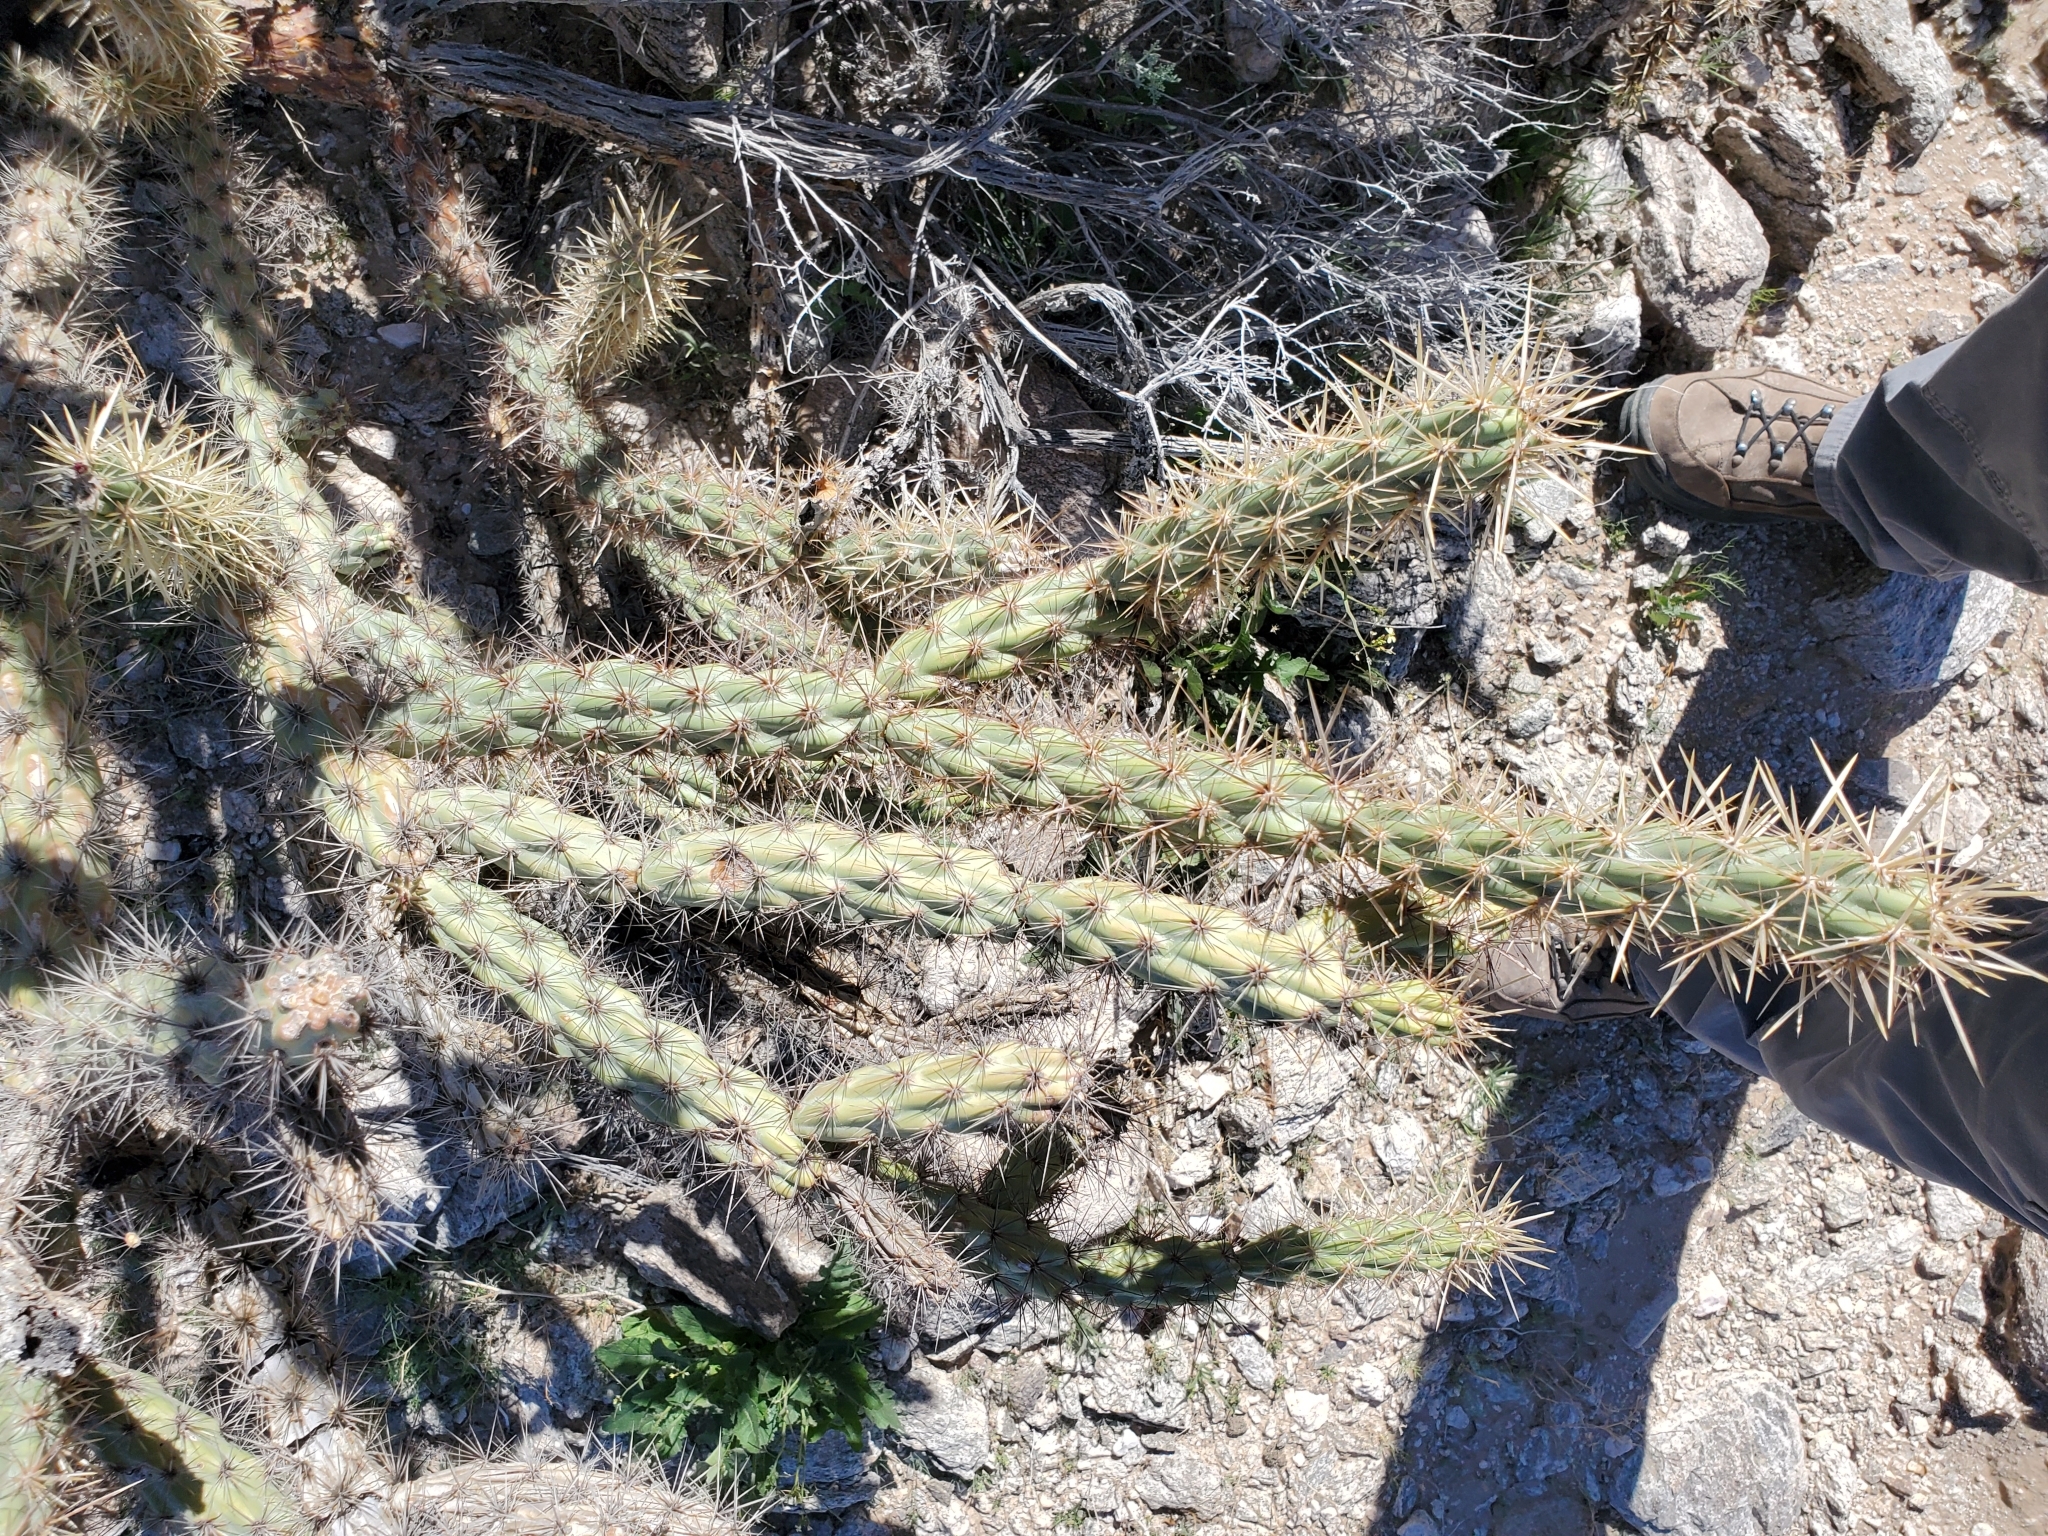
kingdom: Plantae
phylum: Tracheophyta
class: Magnoliopsida
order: Caryophyllales
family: Cactaceae
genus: Cylindropuntia
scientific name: Cylindropuntia acanthocarpa
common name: Buckhorn cholla
